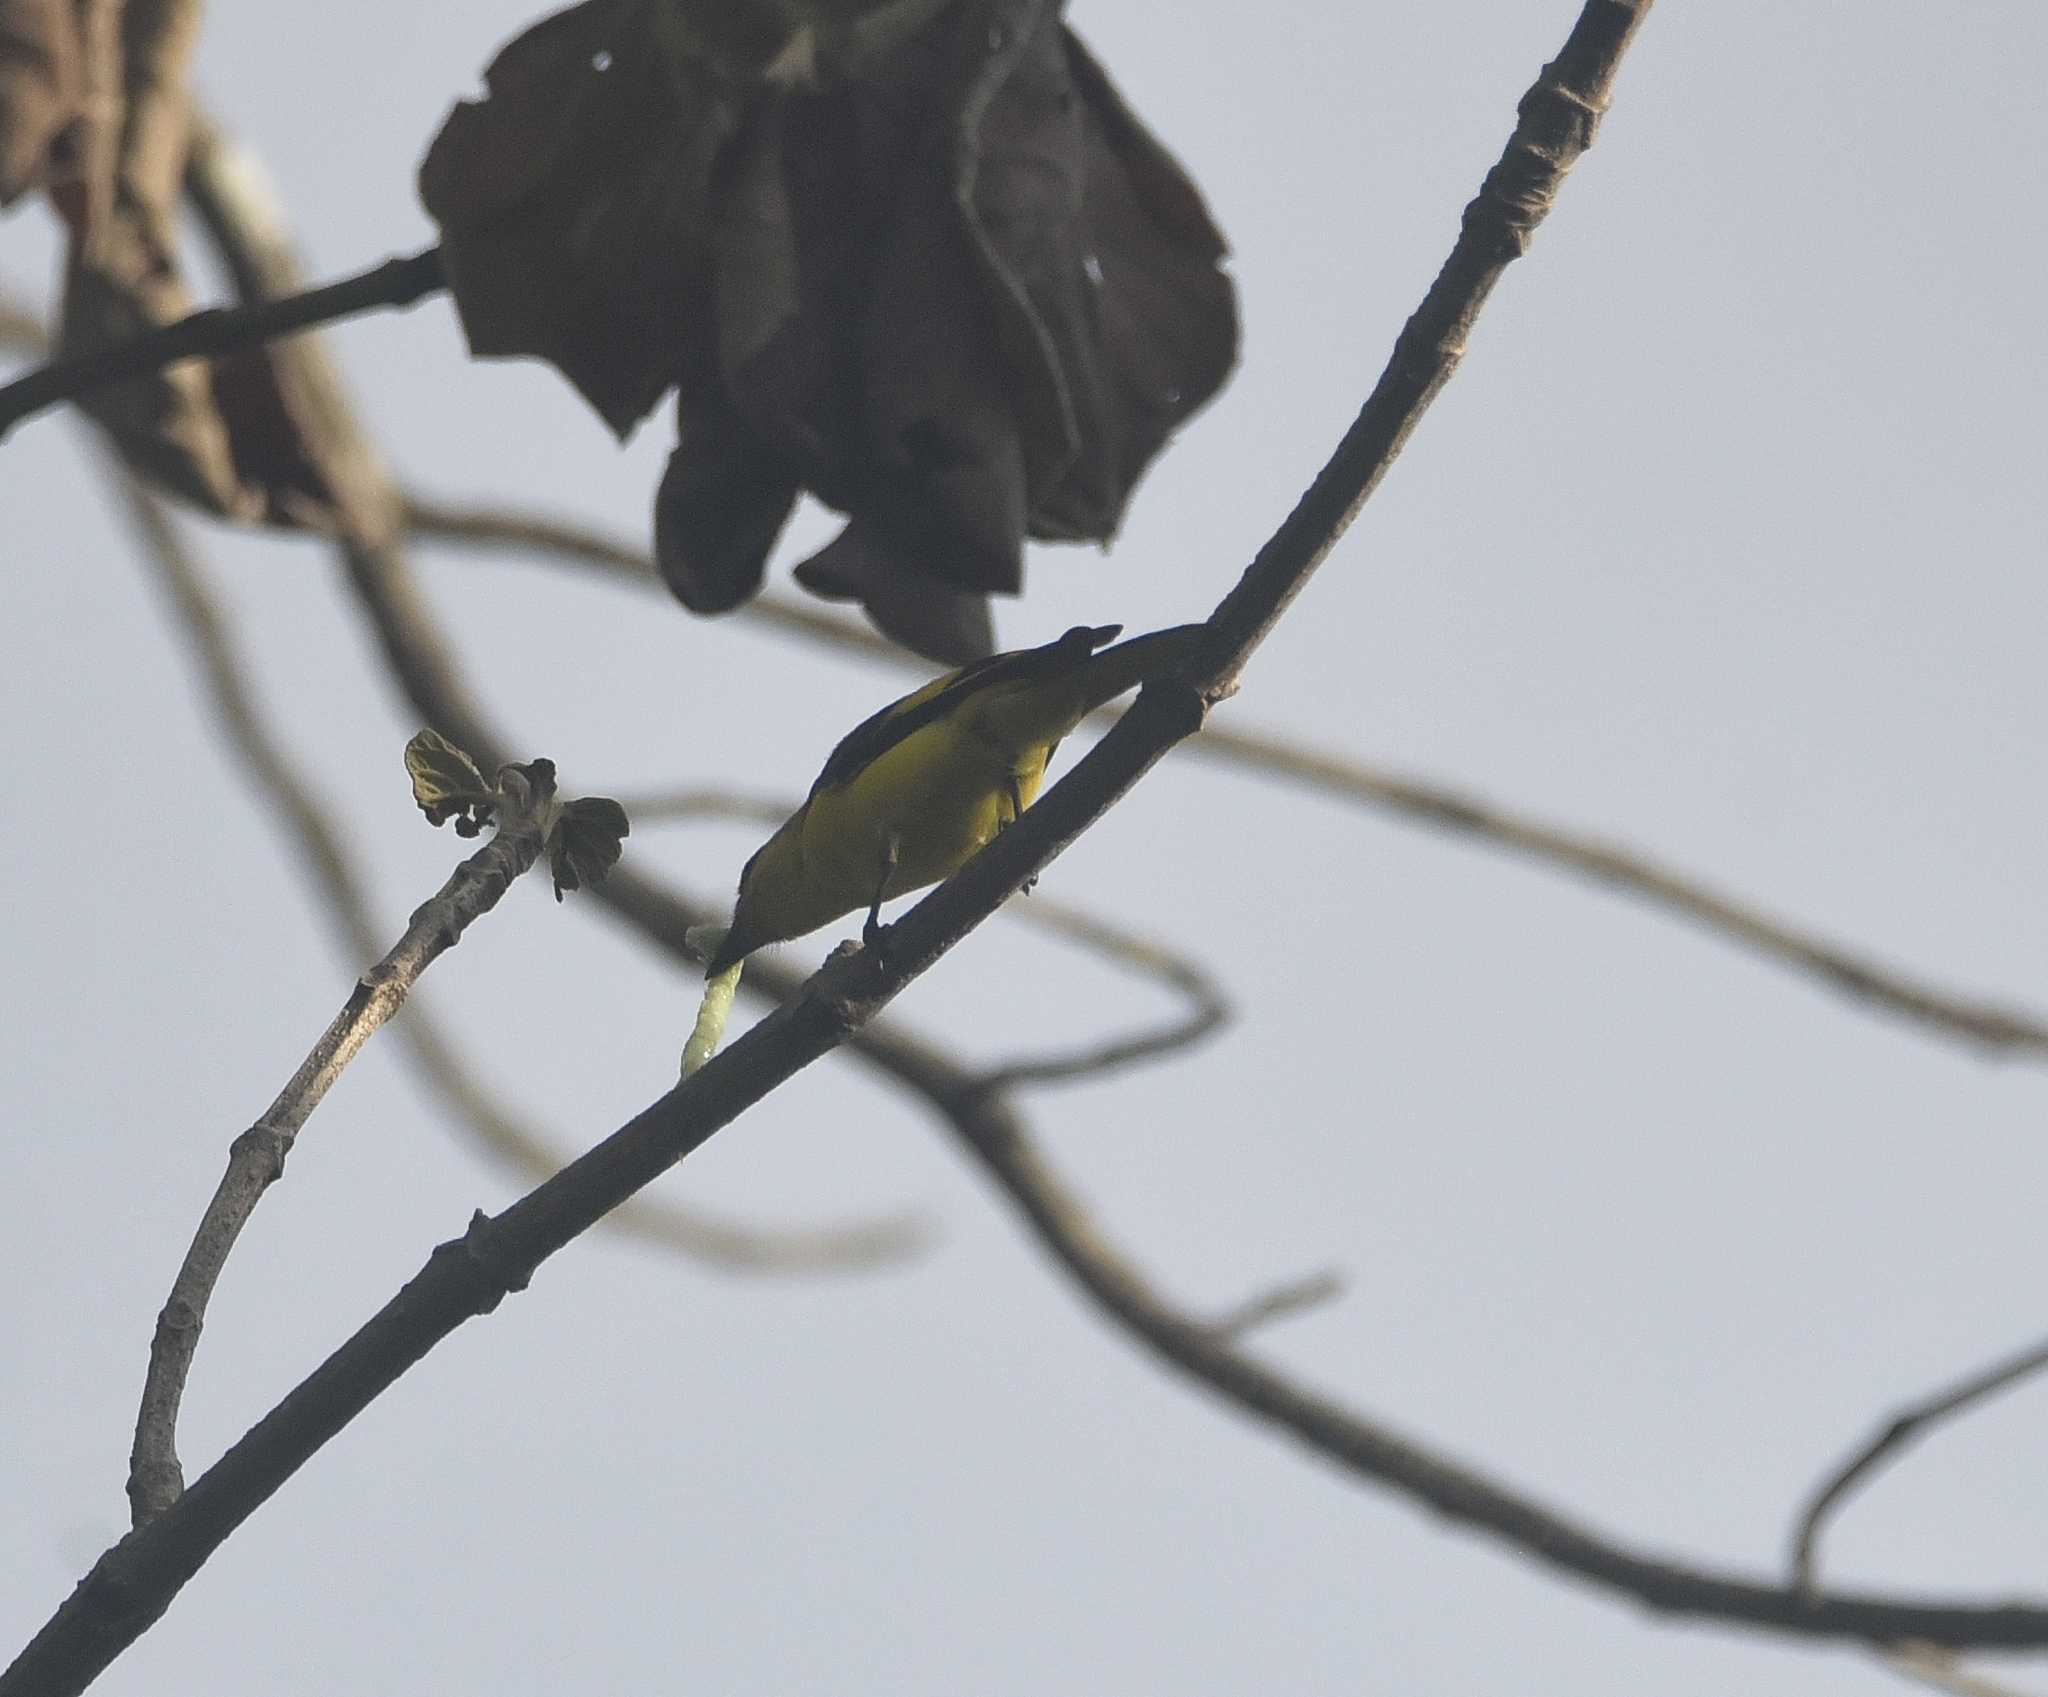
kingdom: Animalia
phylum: Chordata
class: Aves
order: Passeriformes
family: Campephagidae
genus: Pericrocotus
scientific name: Pericrocotus flammeus
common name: Orange minivet
